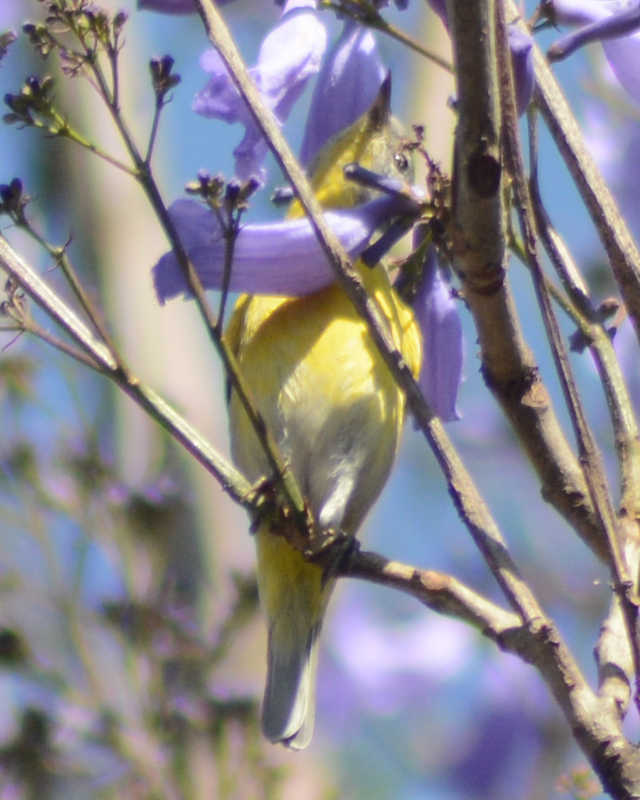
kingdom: Animalia
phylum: Chordata
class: Aves
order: Passeriformes
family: Parulidae
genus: Leiothlypis
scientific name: Leiothlypis ruficapilla
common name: Nashville warbler
